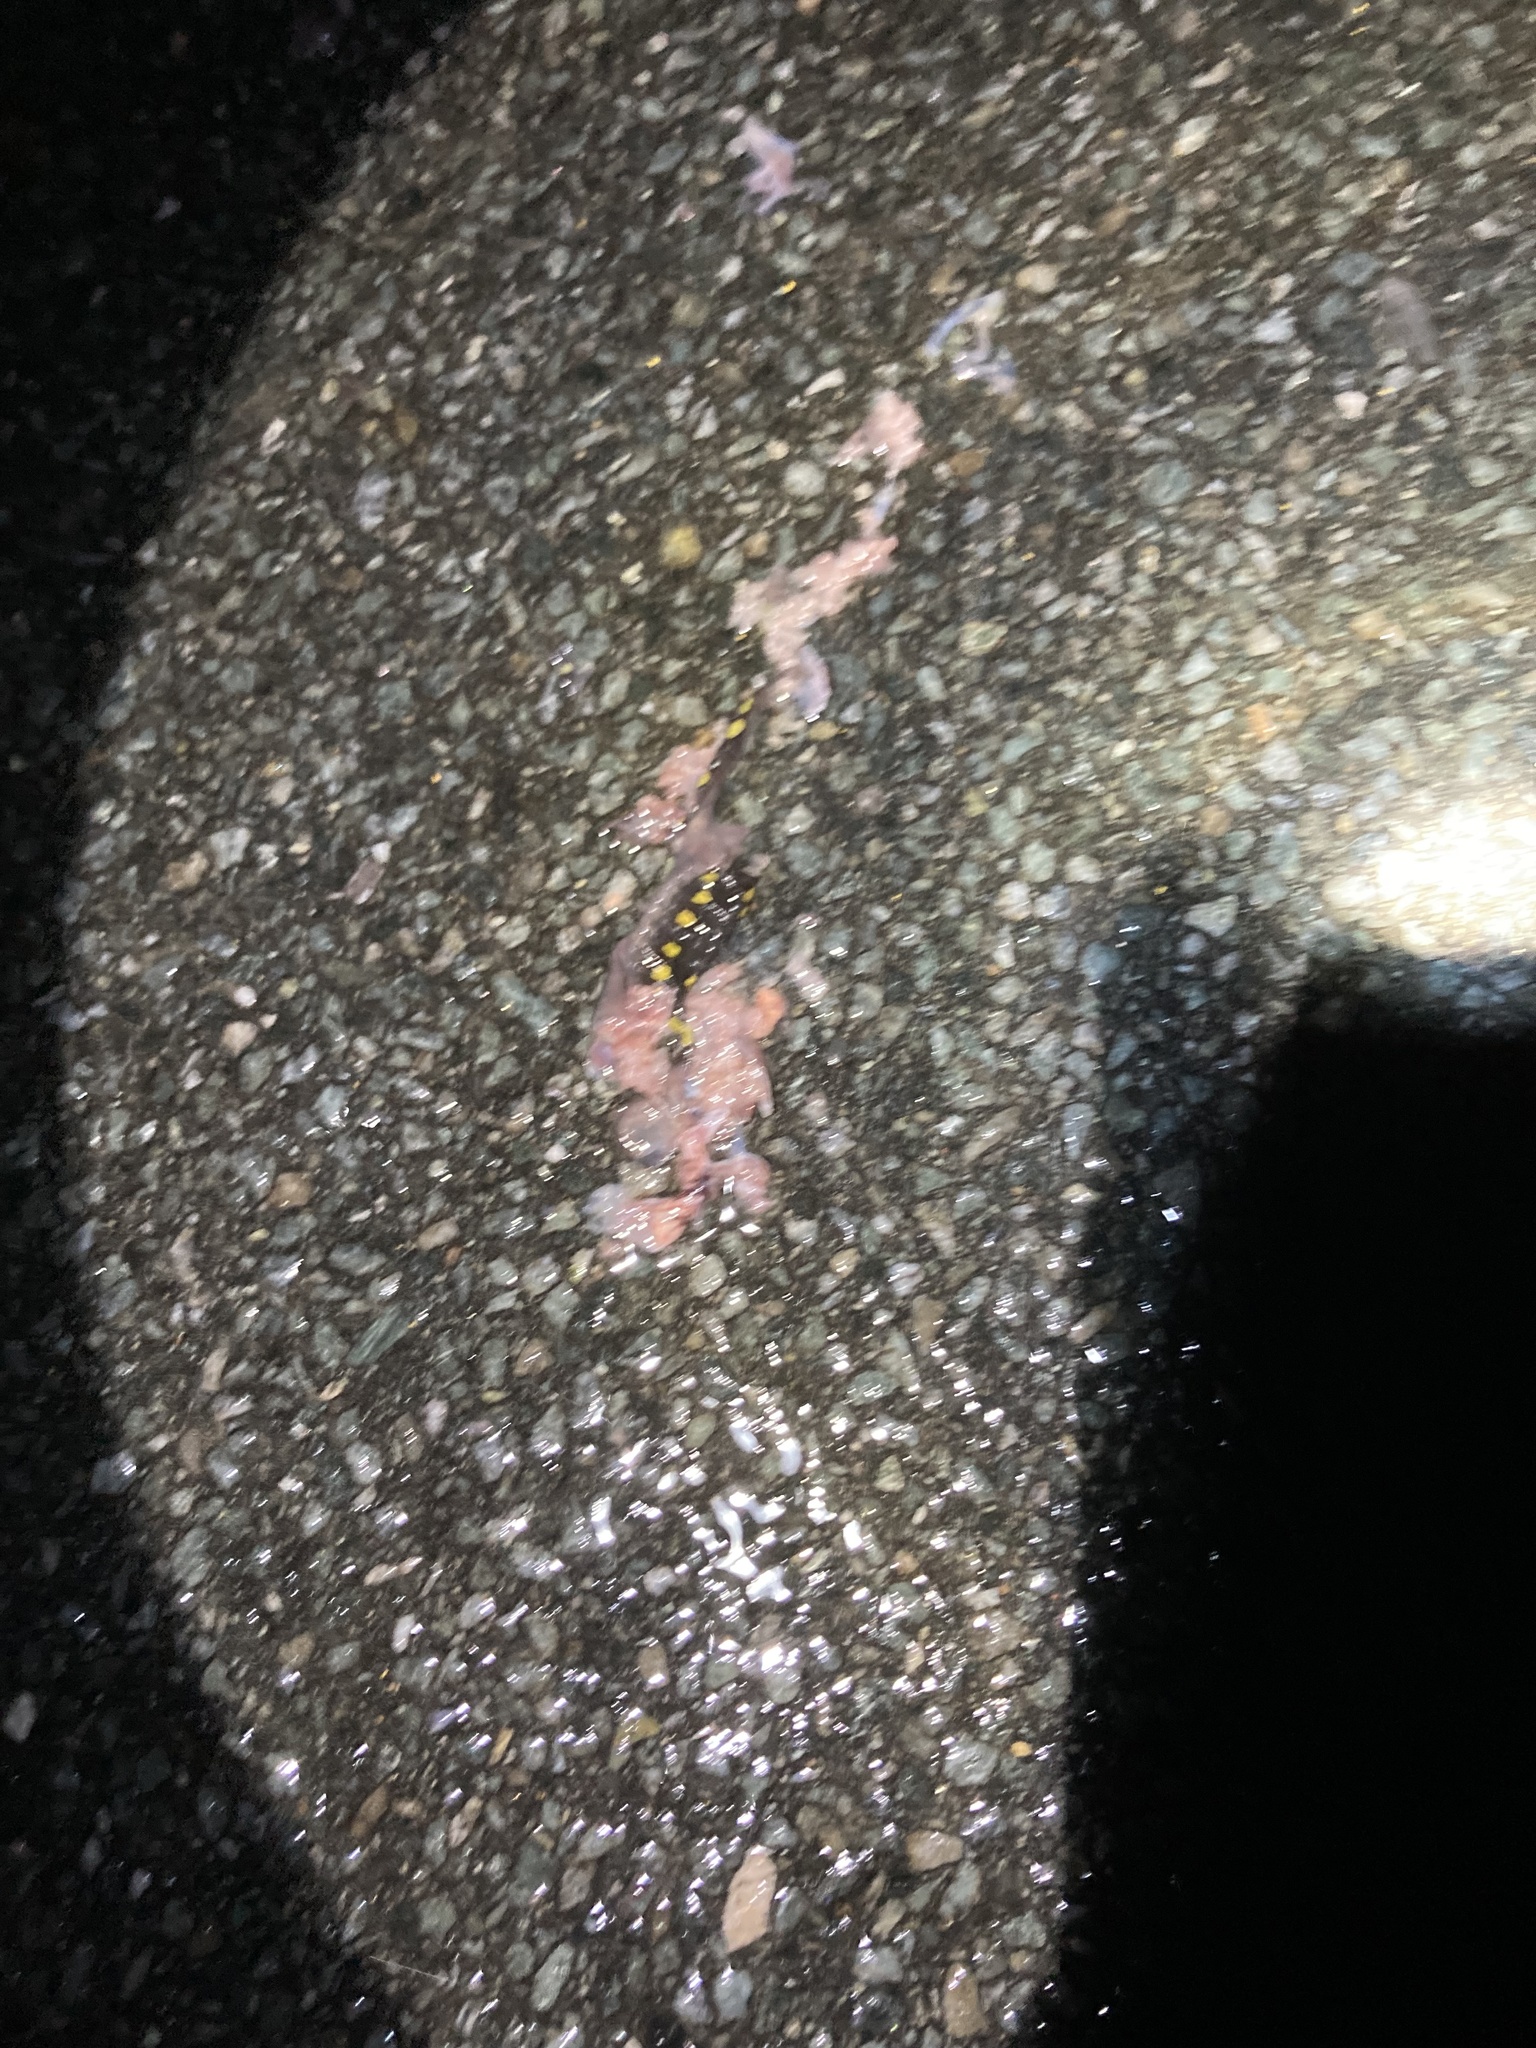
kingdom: Animalia
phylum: Chordata
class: Amphibia
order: Caudata
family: Ambystomatidae
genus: Ambystoma
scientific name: Ambystoma maculatum
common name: Spotted salamander
